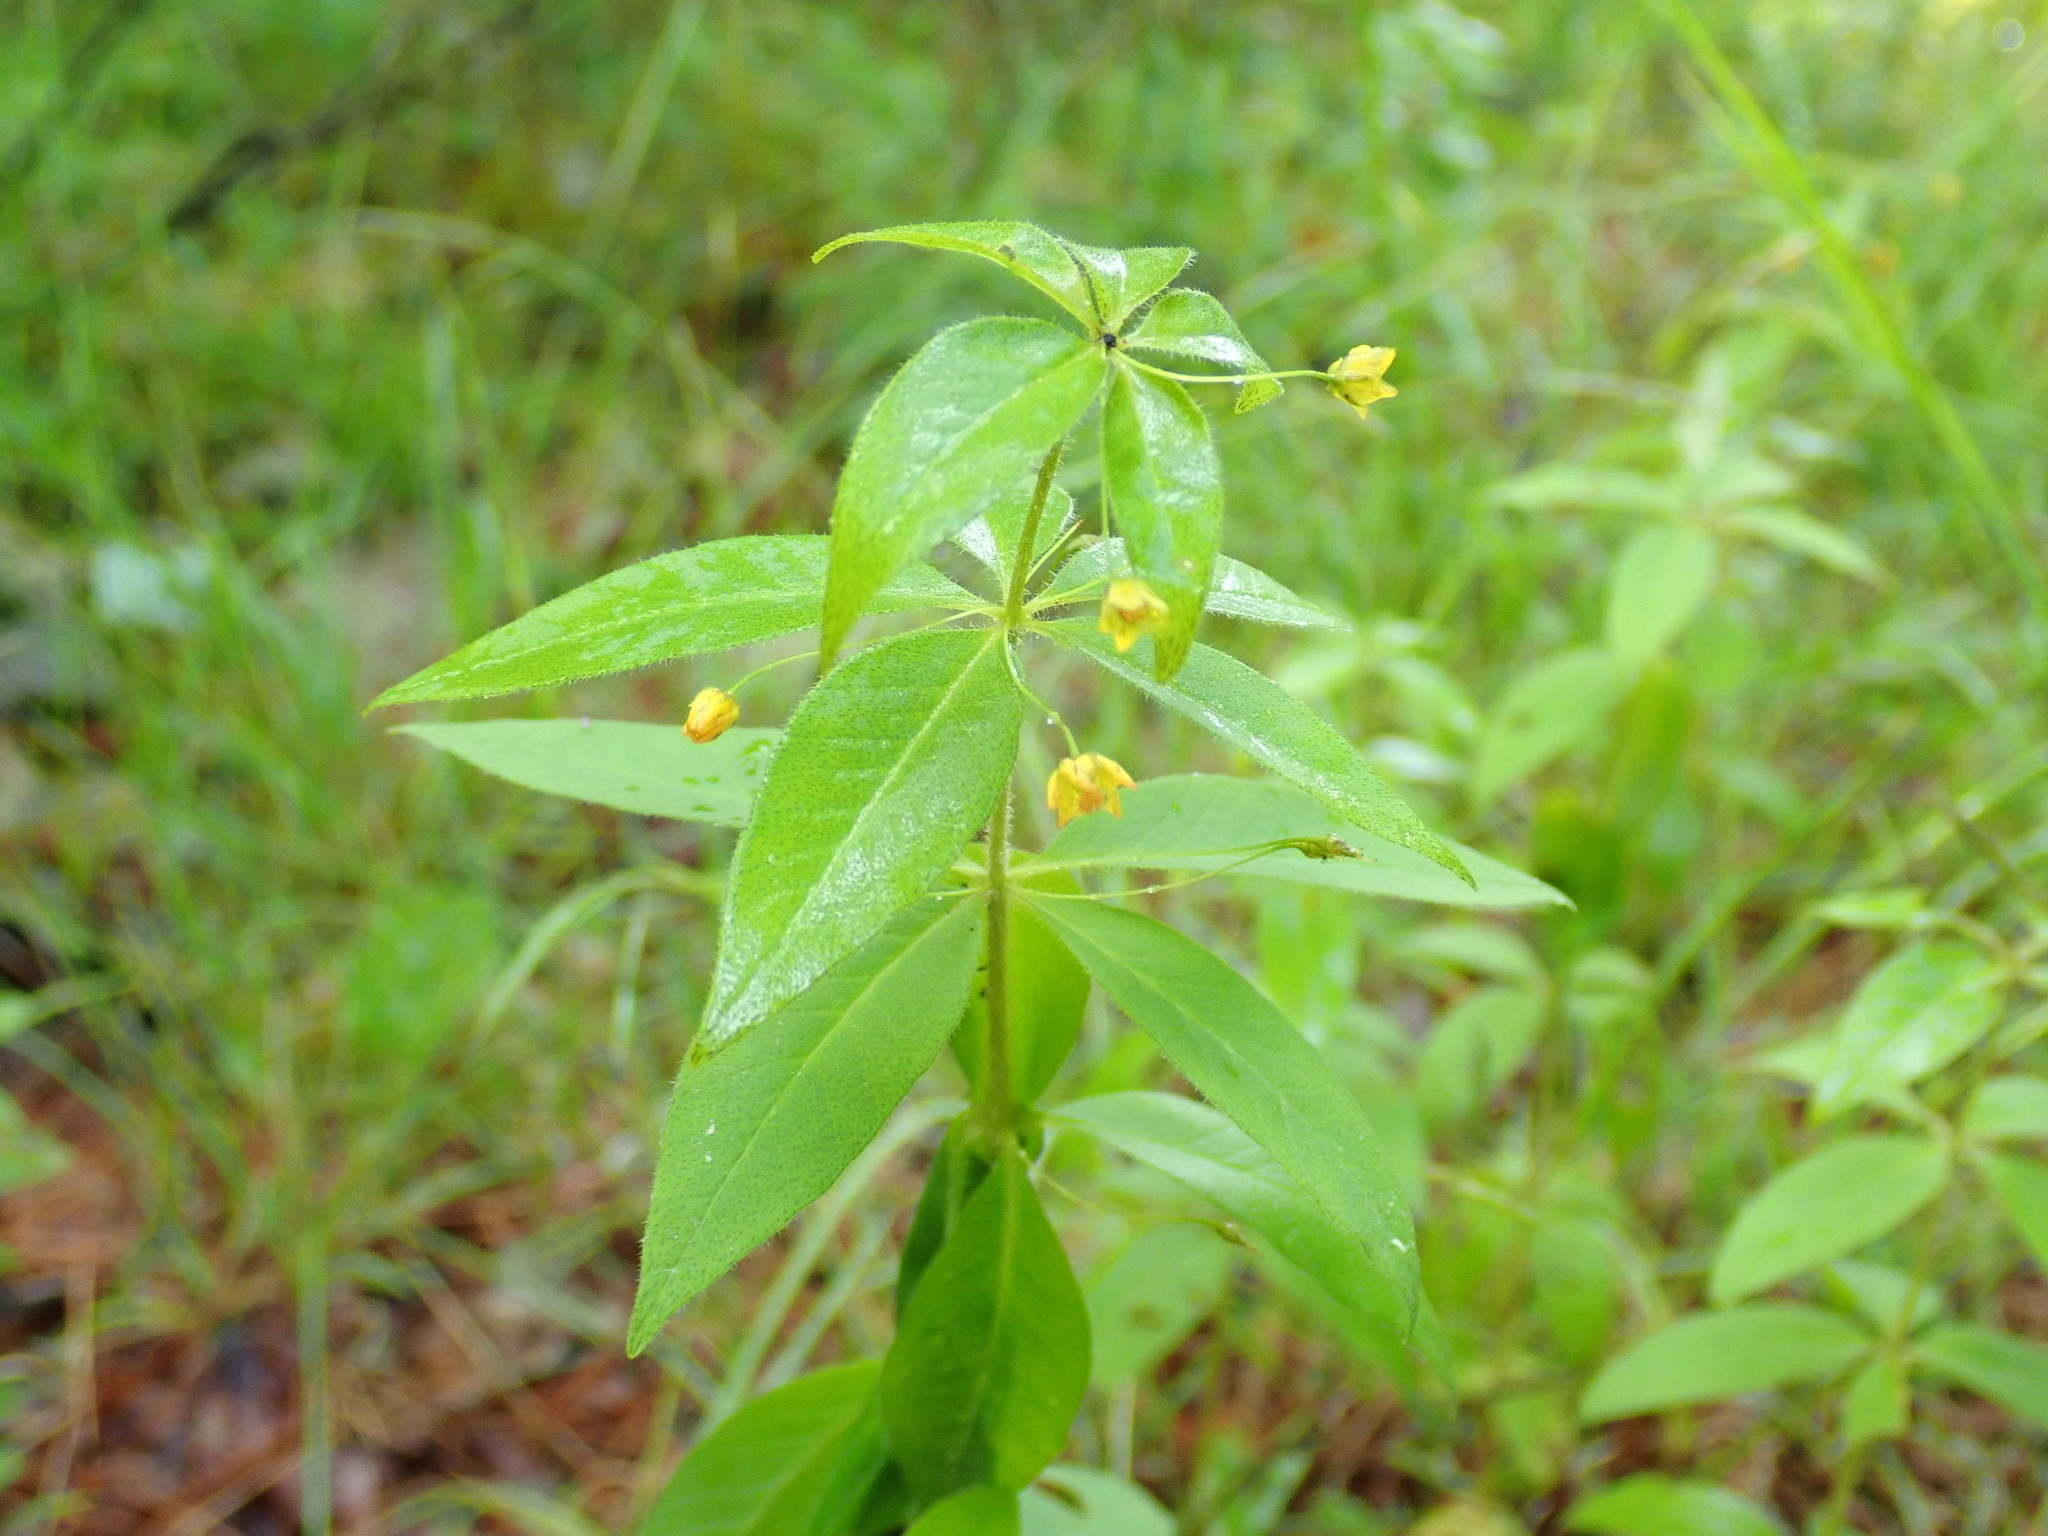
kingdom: Plantae
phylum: Tracheophyta
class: Magnoliopsida
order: Ericales
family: Primulaceae
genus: Lysimachia
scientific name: Lysimachia quadrifolia
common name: Whorled loosestrife
